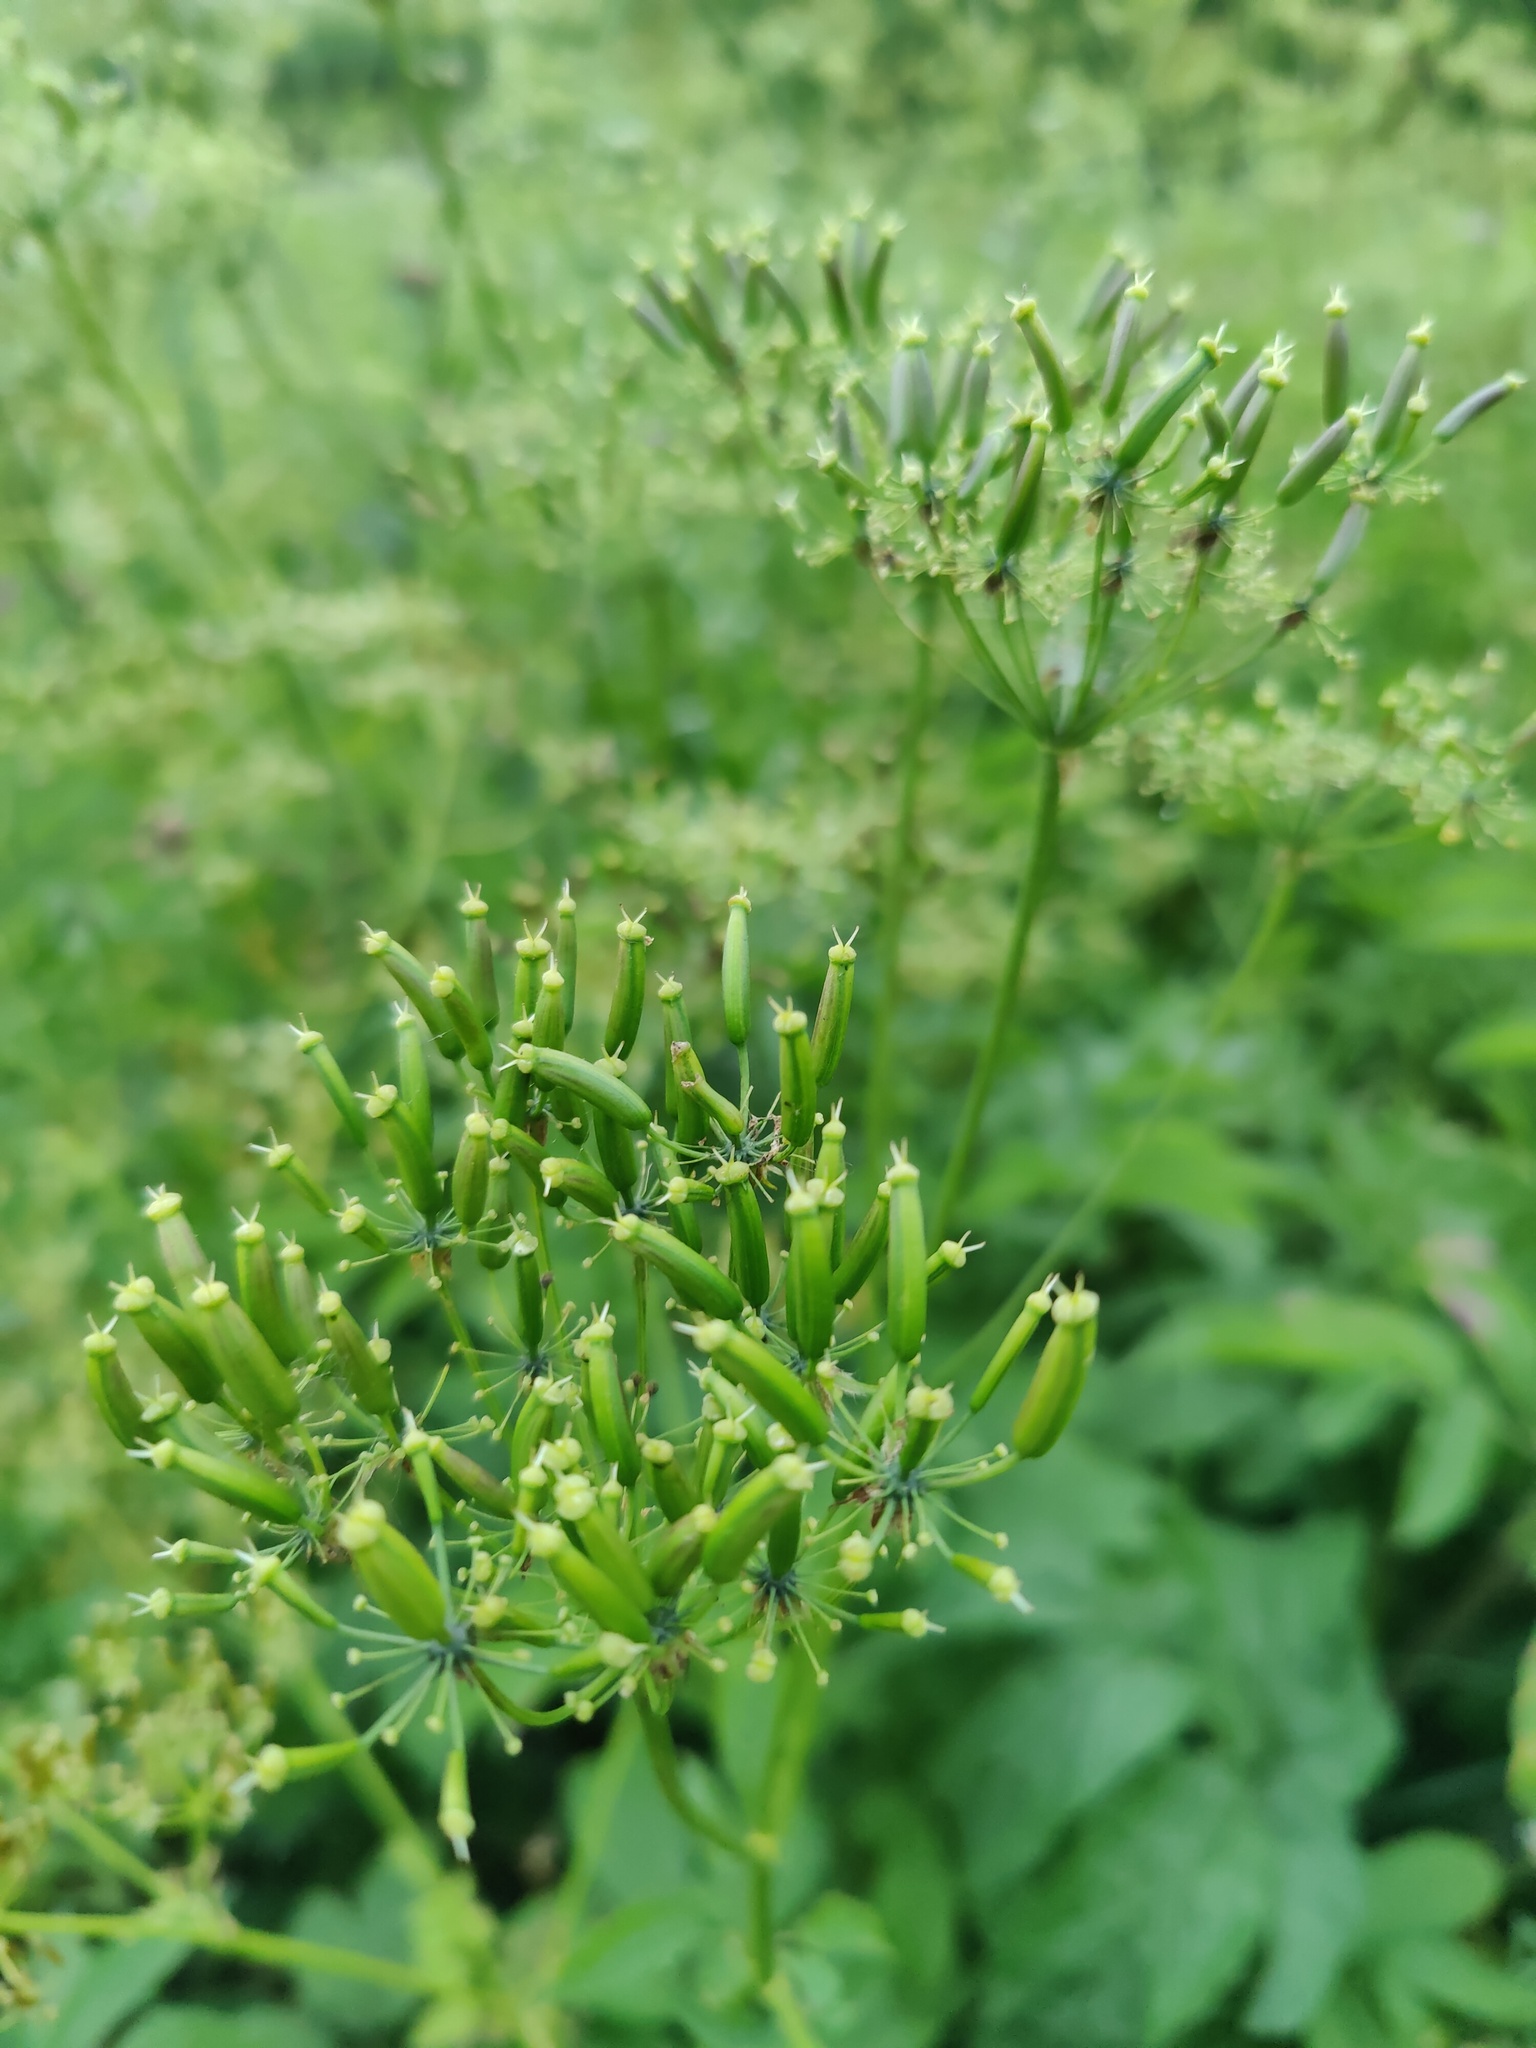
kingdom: Plantae
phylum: Tracheophyta
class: Magnoliopsida
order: Apiales
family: Apiaceae
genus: Chaerophyllum
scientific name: Chaerophyllum aromaticum
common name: Broadleaf chervil
